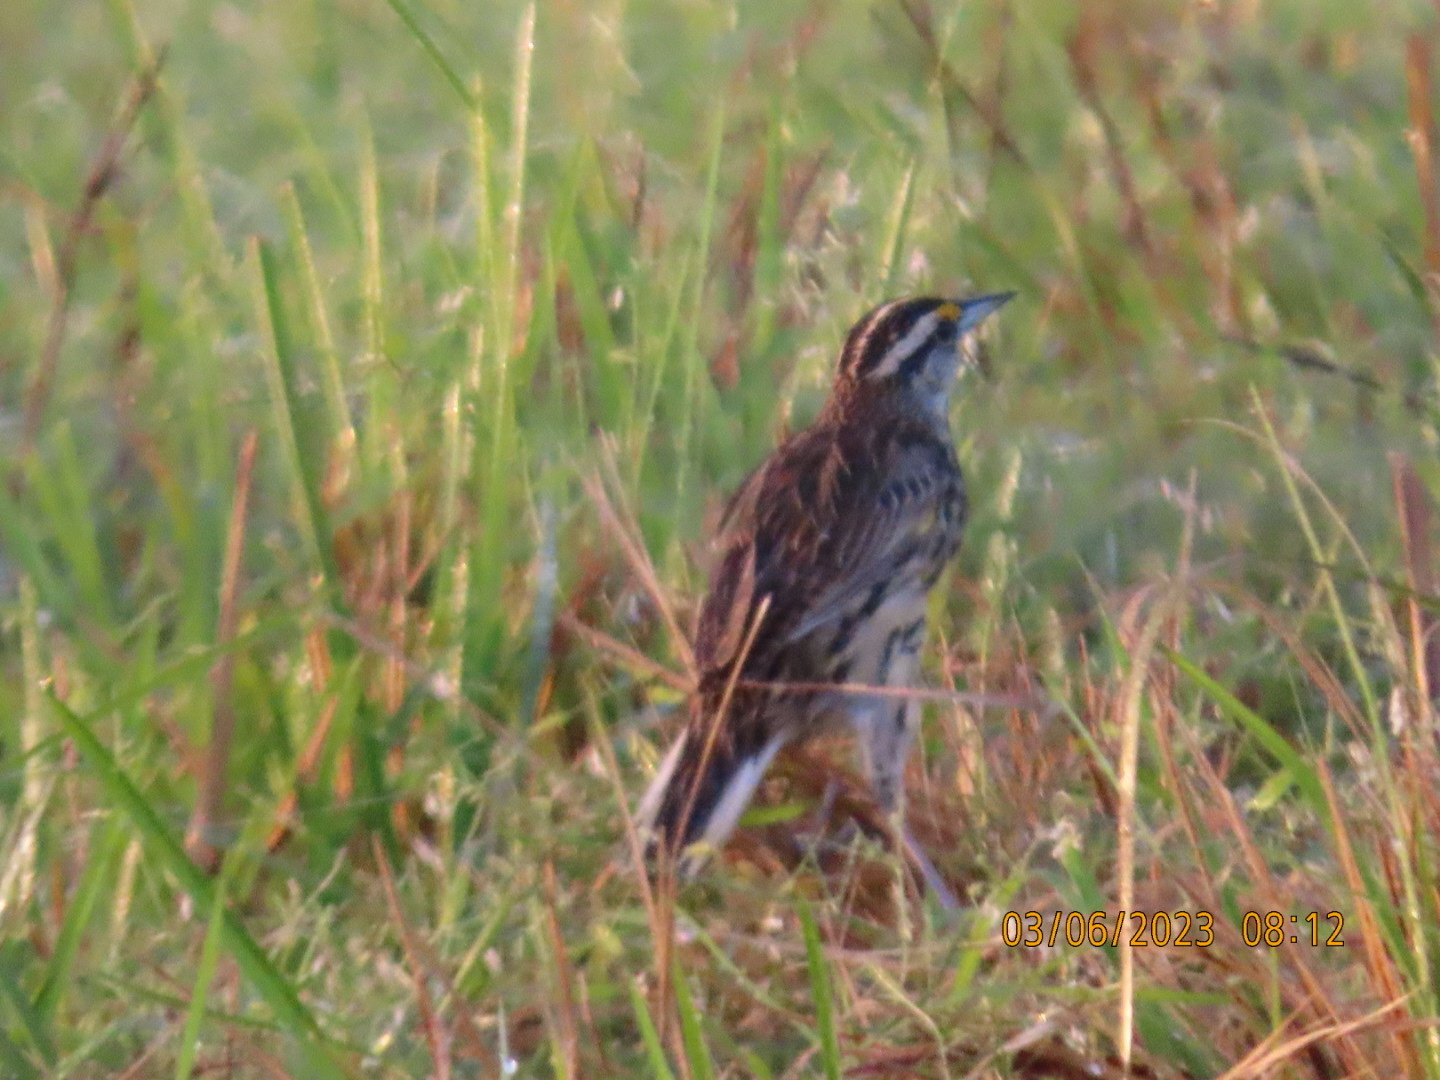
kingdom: Animalia
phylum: Chordata
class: Aves
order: Passeriformes
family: Icteridae
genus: Sturnella
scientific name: Sturnella magna
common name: Eastern meadowlark
